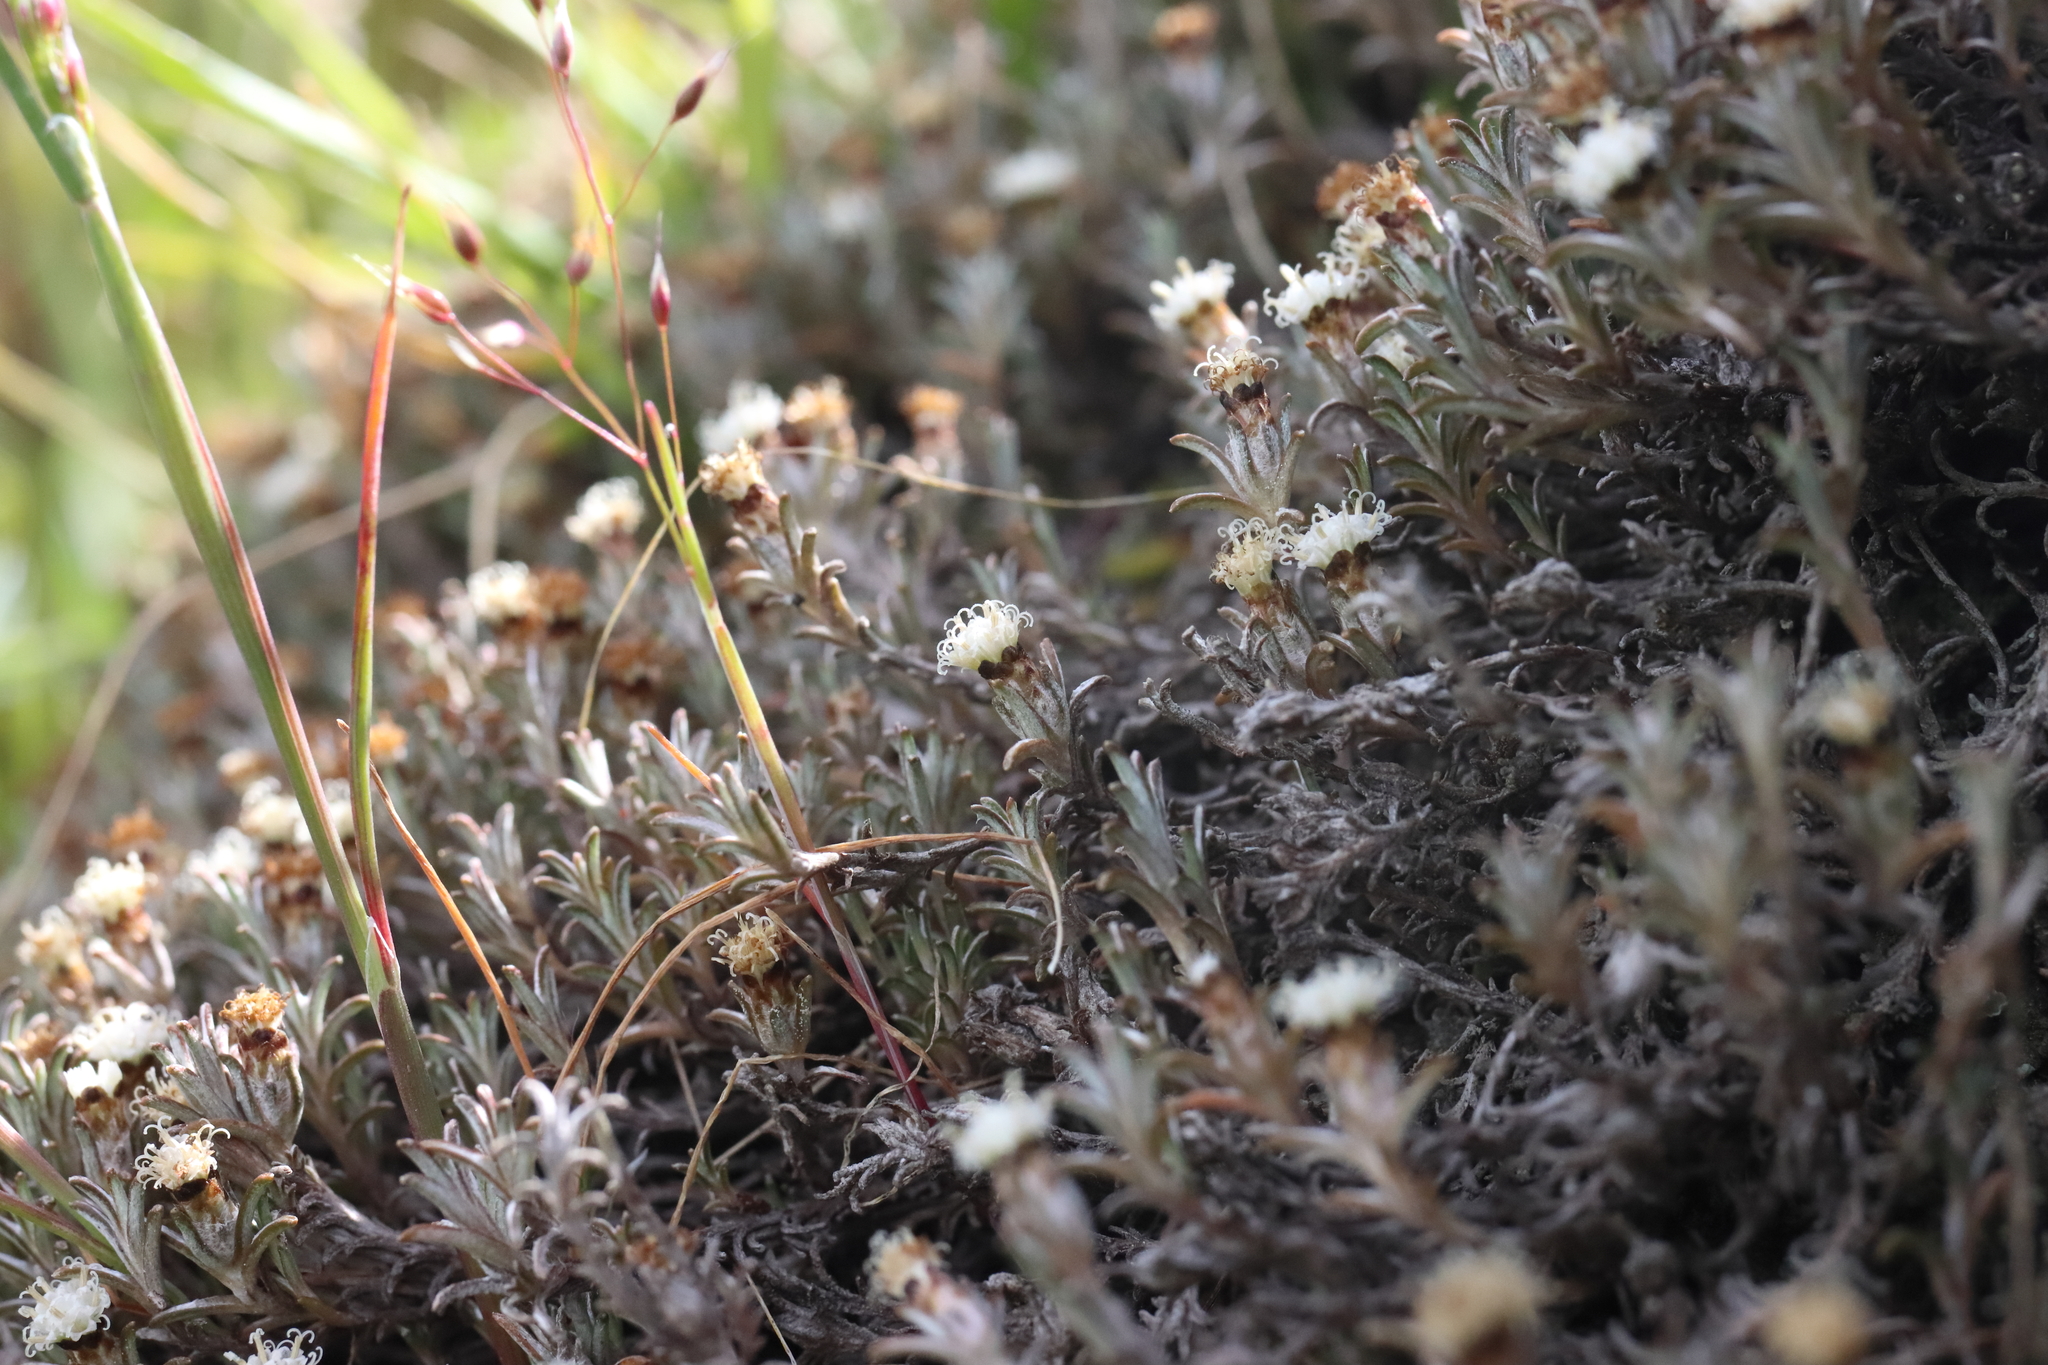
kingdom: Plantae
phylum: Tracheophyta
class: Magnoliopsida
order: Asterales
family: Asteraceae
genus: Raoulia
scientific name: Raoulia monroi
